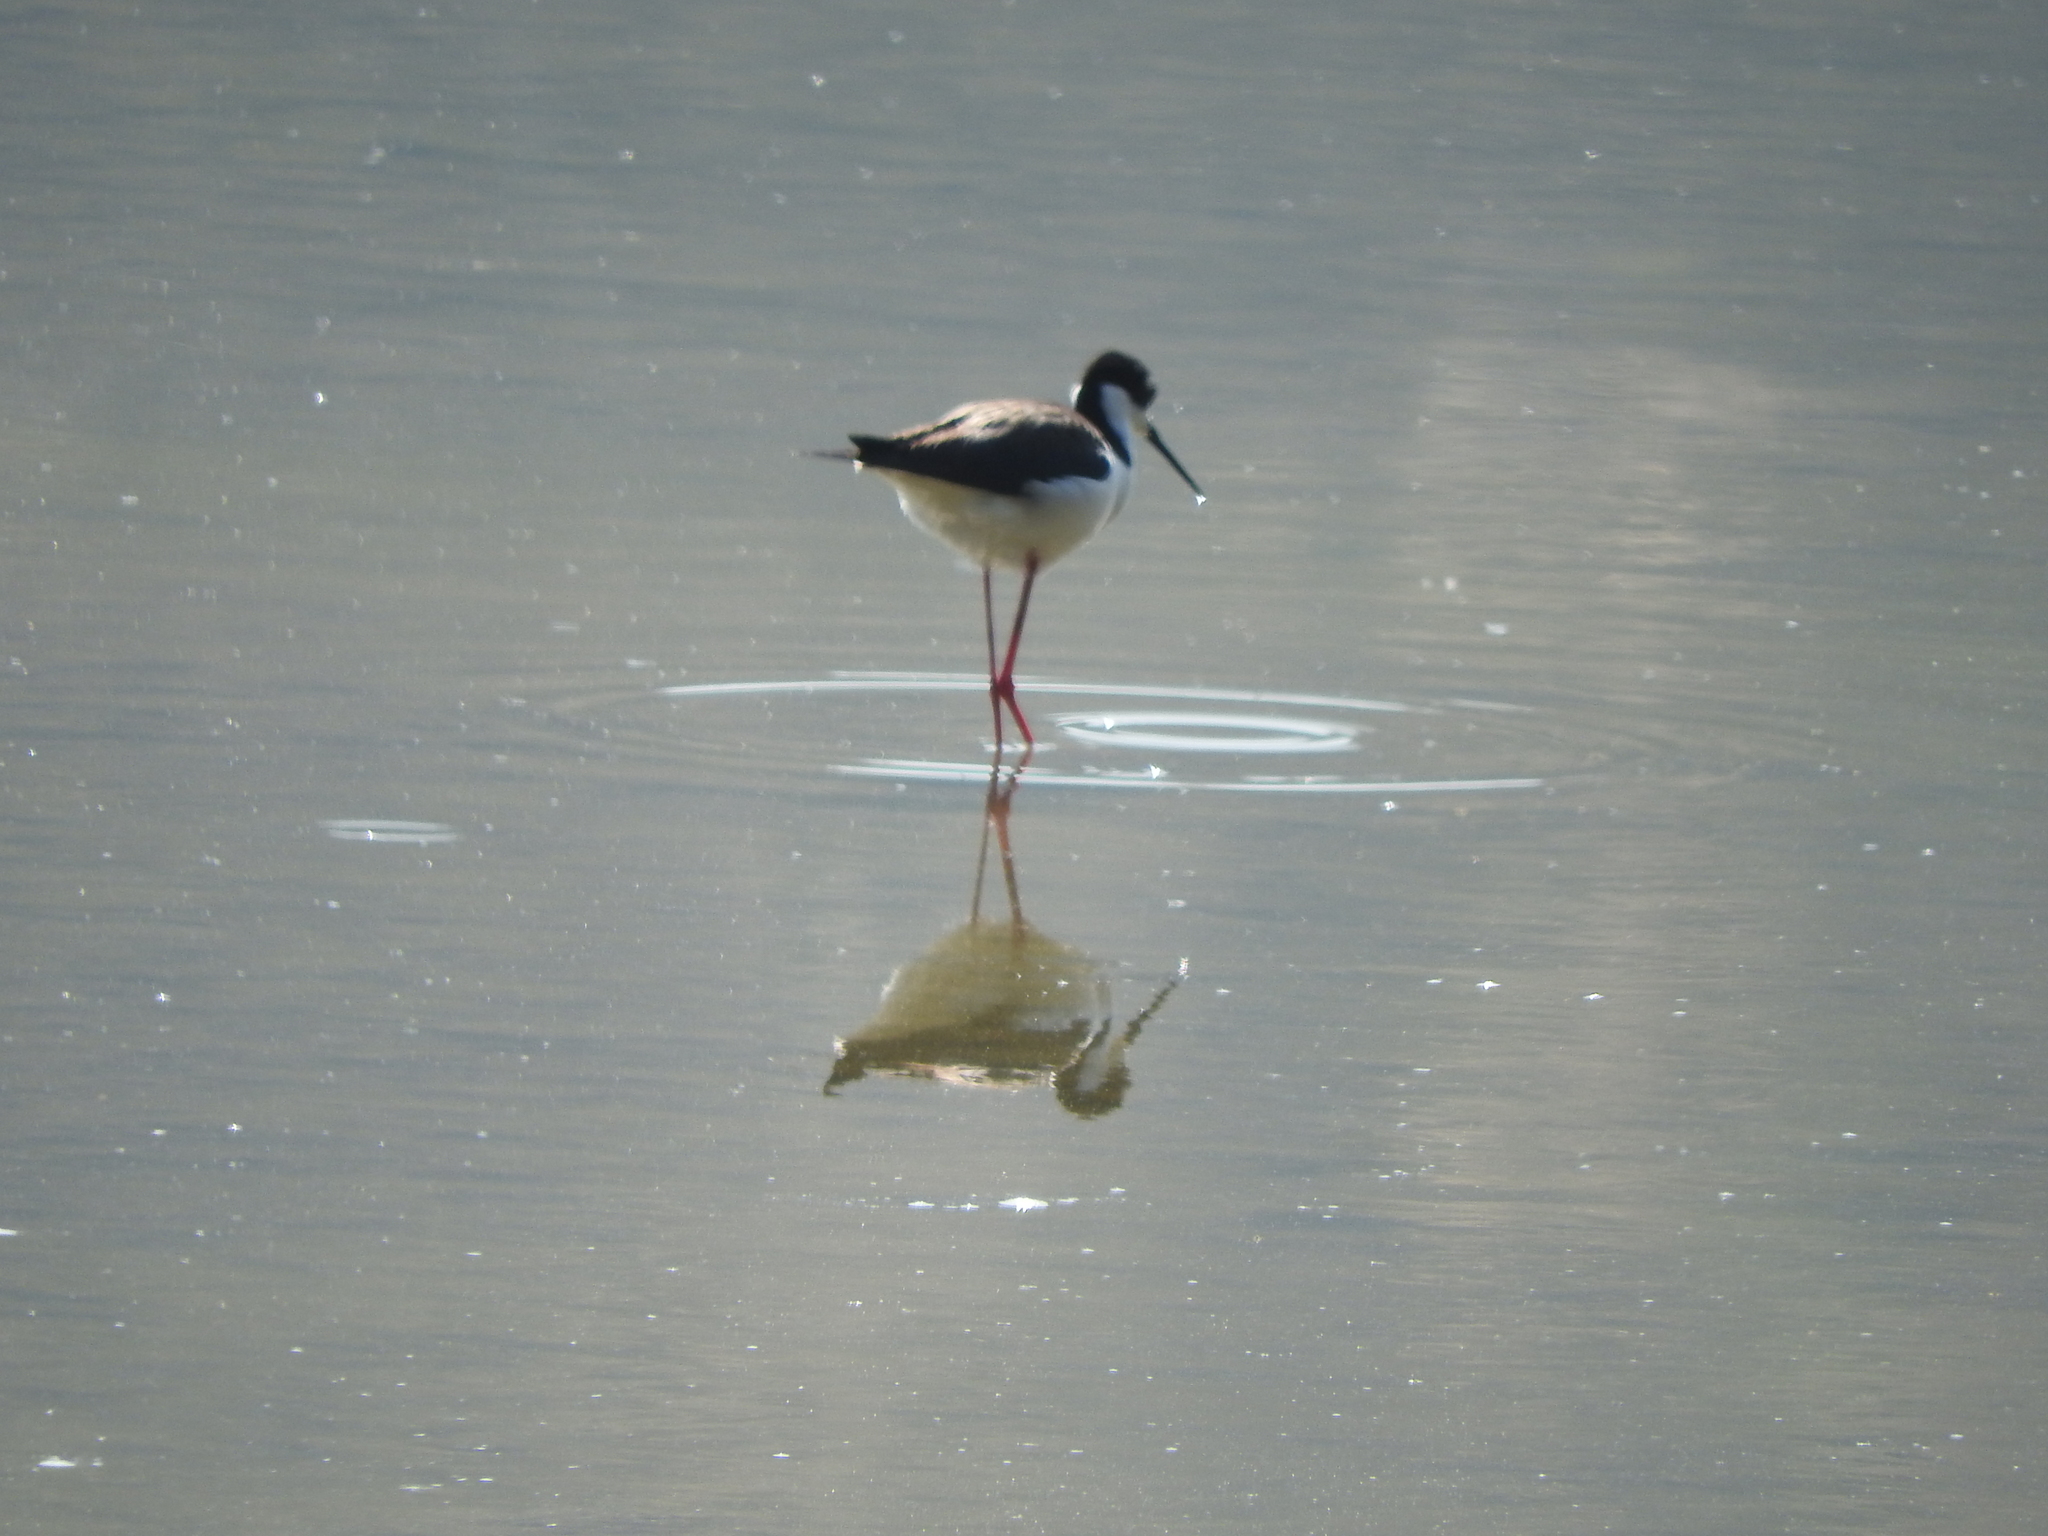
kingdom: Animalia
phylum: Chordata
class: Aves
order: Charadriiformes
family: Recurvirostridae
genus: Himantopus
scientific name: Himantopus mexicanus
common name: Black-necked stilt
